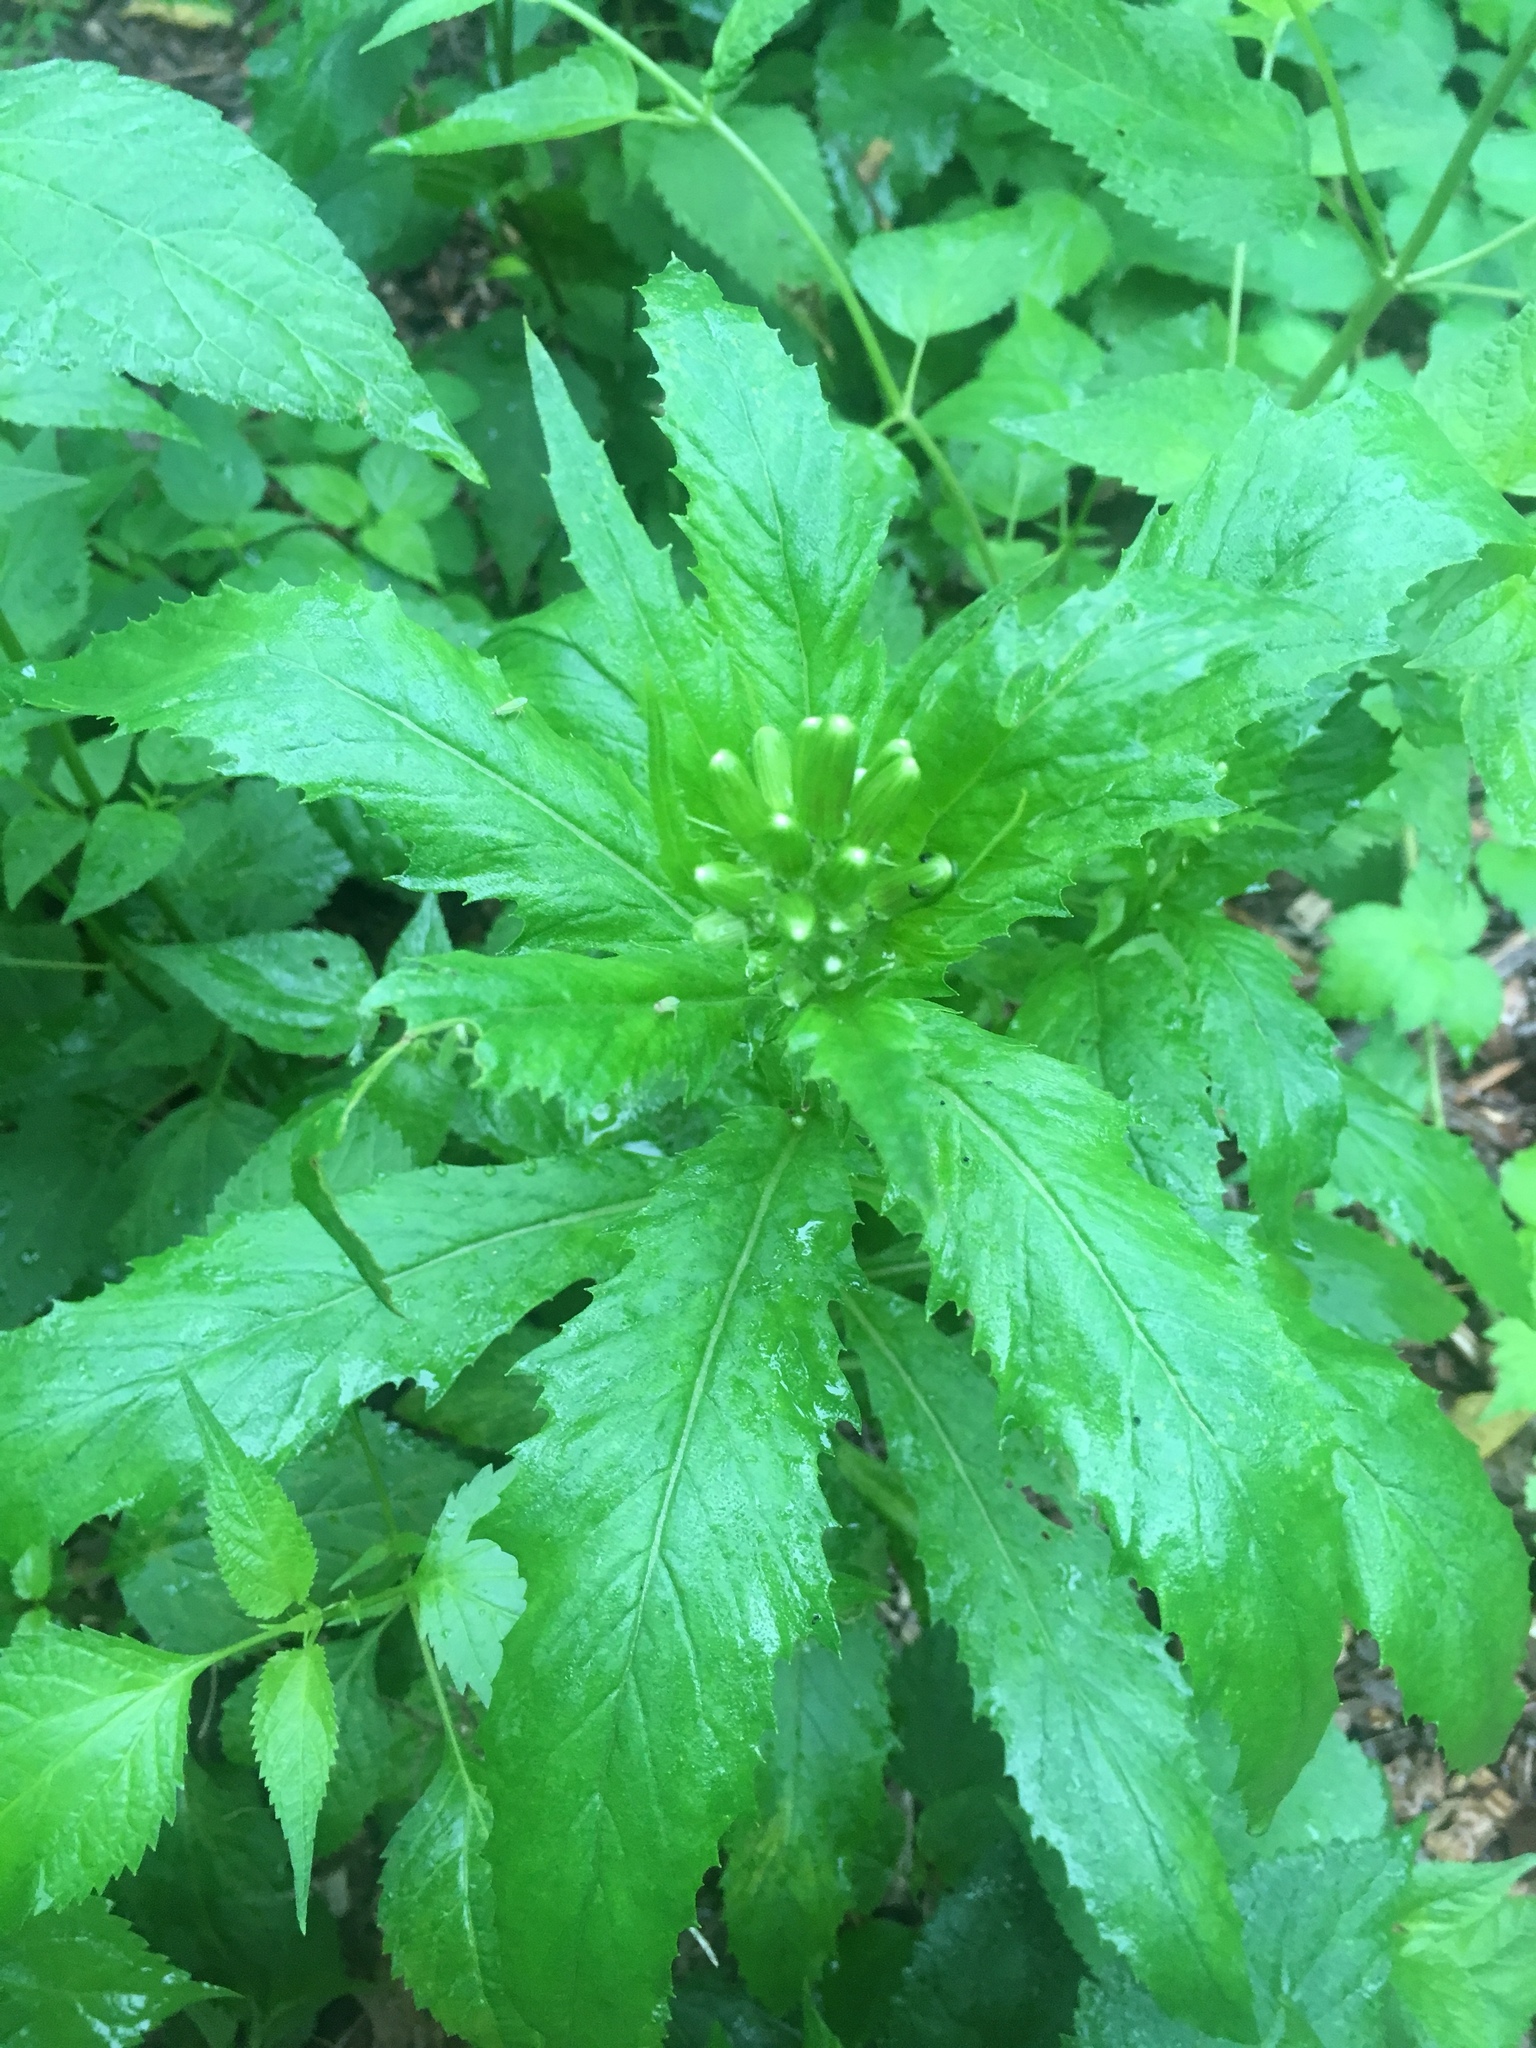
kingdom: Plantae
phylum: Tracheophyta
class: Magnoliopsida
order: Asterales
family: Asteraceae
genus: Erechtites
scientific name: Erechtites hieraciifolius
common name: American burnweed
